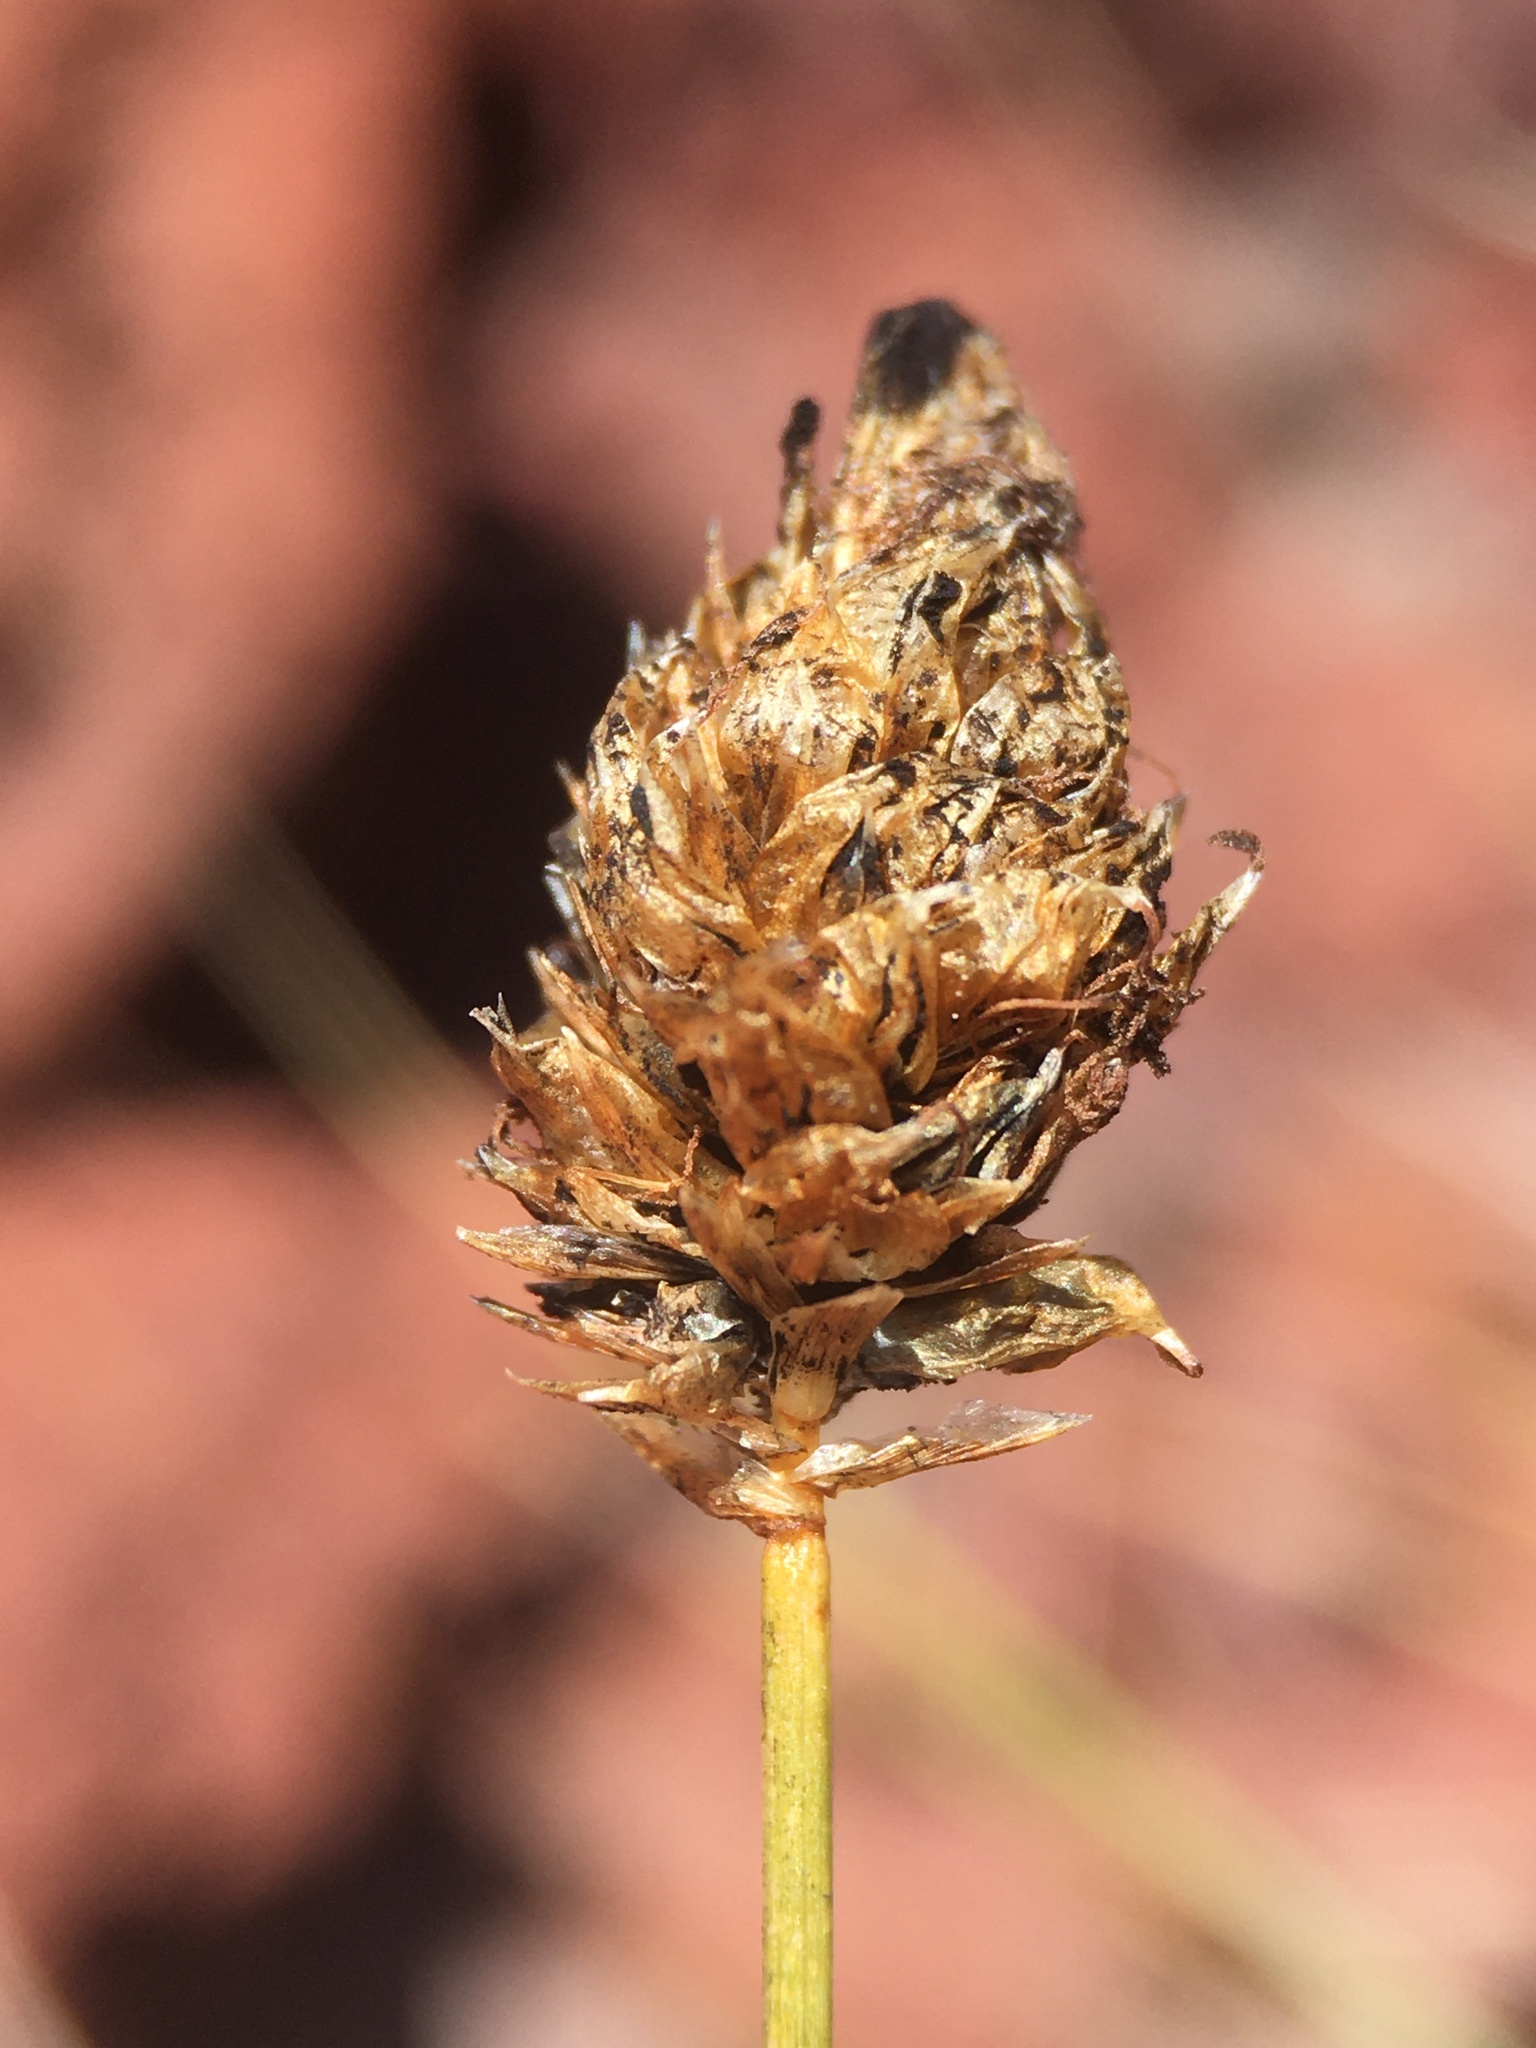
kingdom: Plantae
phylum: Tracheophyta
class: Liliopsida
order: Poales
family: Cyperaceae
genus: Carex
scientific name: Carex breweri
